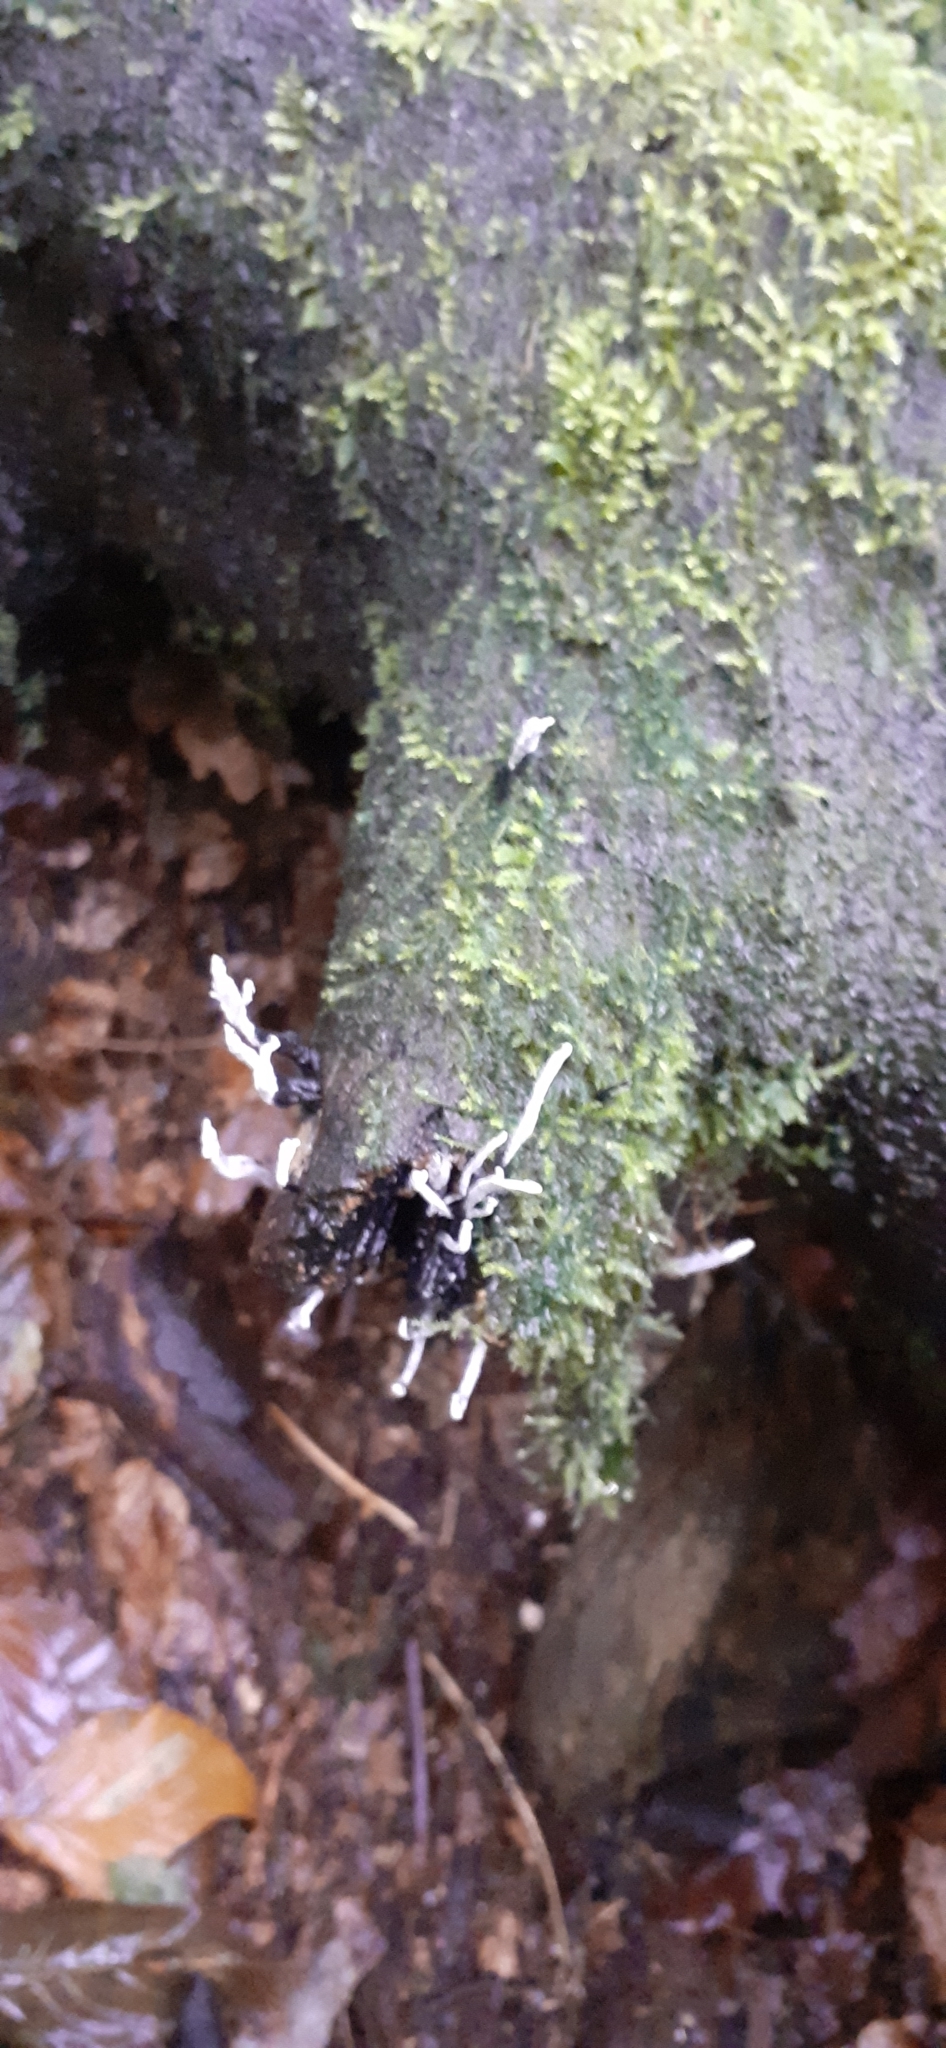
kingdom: Fungi
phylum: Ascomycota
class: Sordariomycetes
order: Xylariales
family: Xylariaceae
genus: Xylaria
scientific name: Xylaria hypoxylon
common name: Candle-snuff fungus
